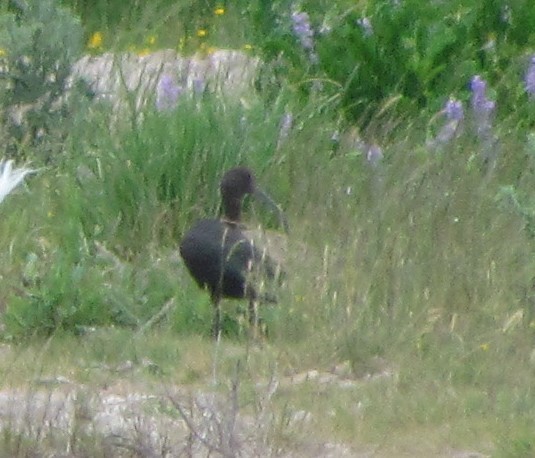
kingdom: Animalia
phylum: Chordata
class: Aves
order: Pelecaniformes
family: Threskiornithidae
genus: Plegadis
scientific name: Plegadis chihi
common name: White-faced ibis
